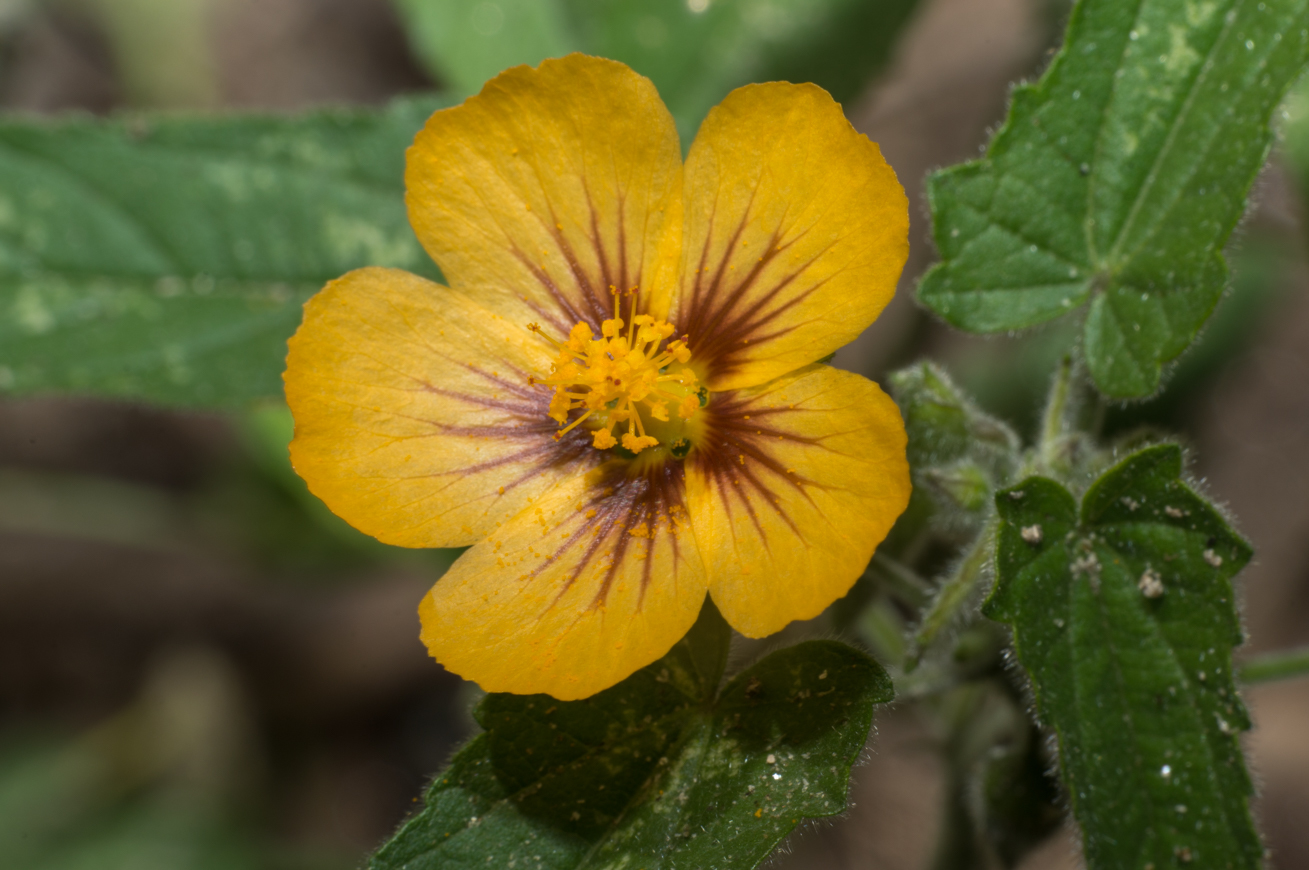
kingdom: Plantae
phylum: Tracheophyta
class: Magnoliopsida
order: Malvales
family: Malvaceae
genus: Gaya
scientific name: Gaya parviflora
